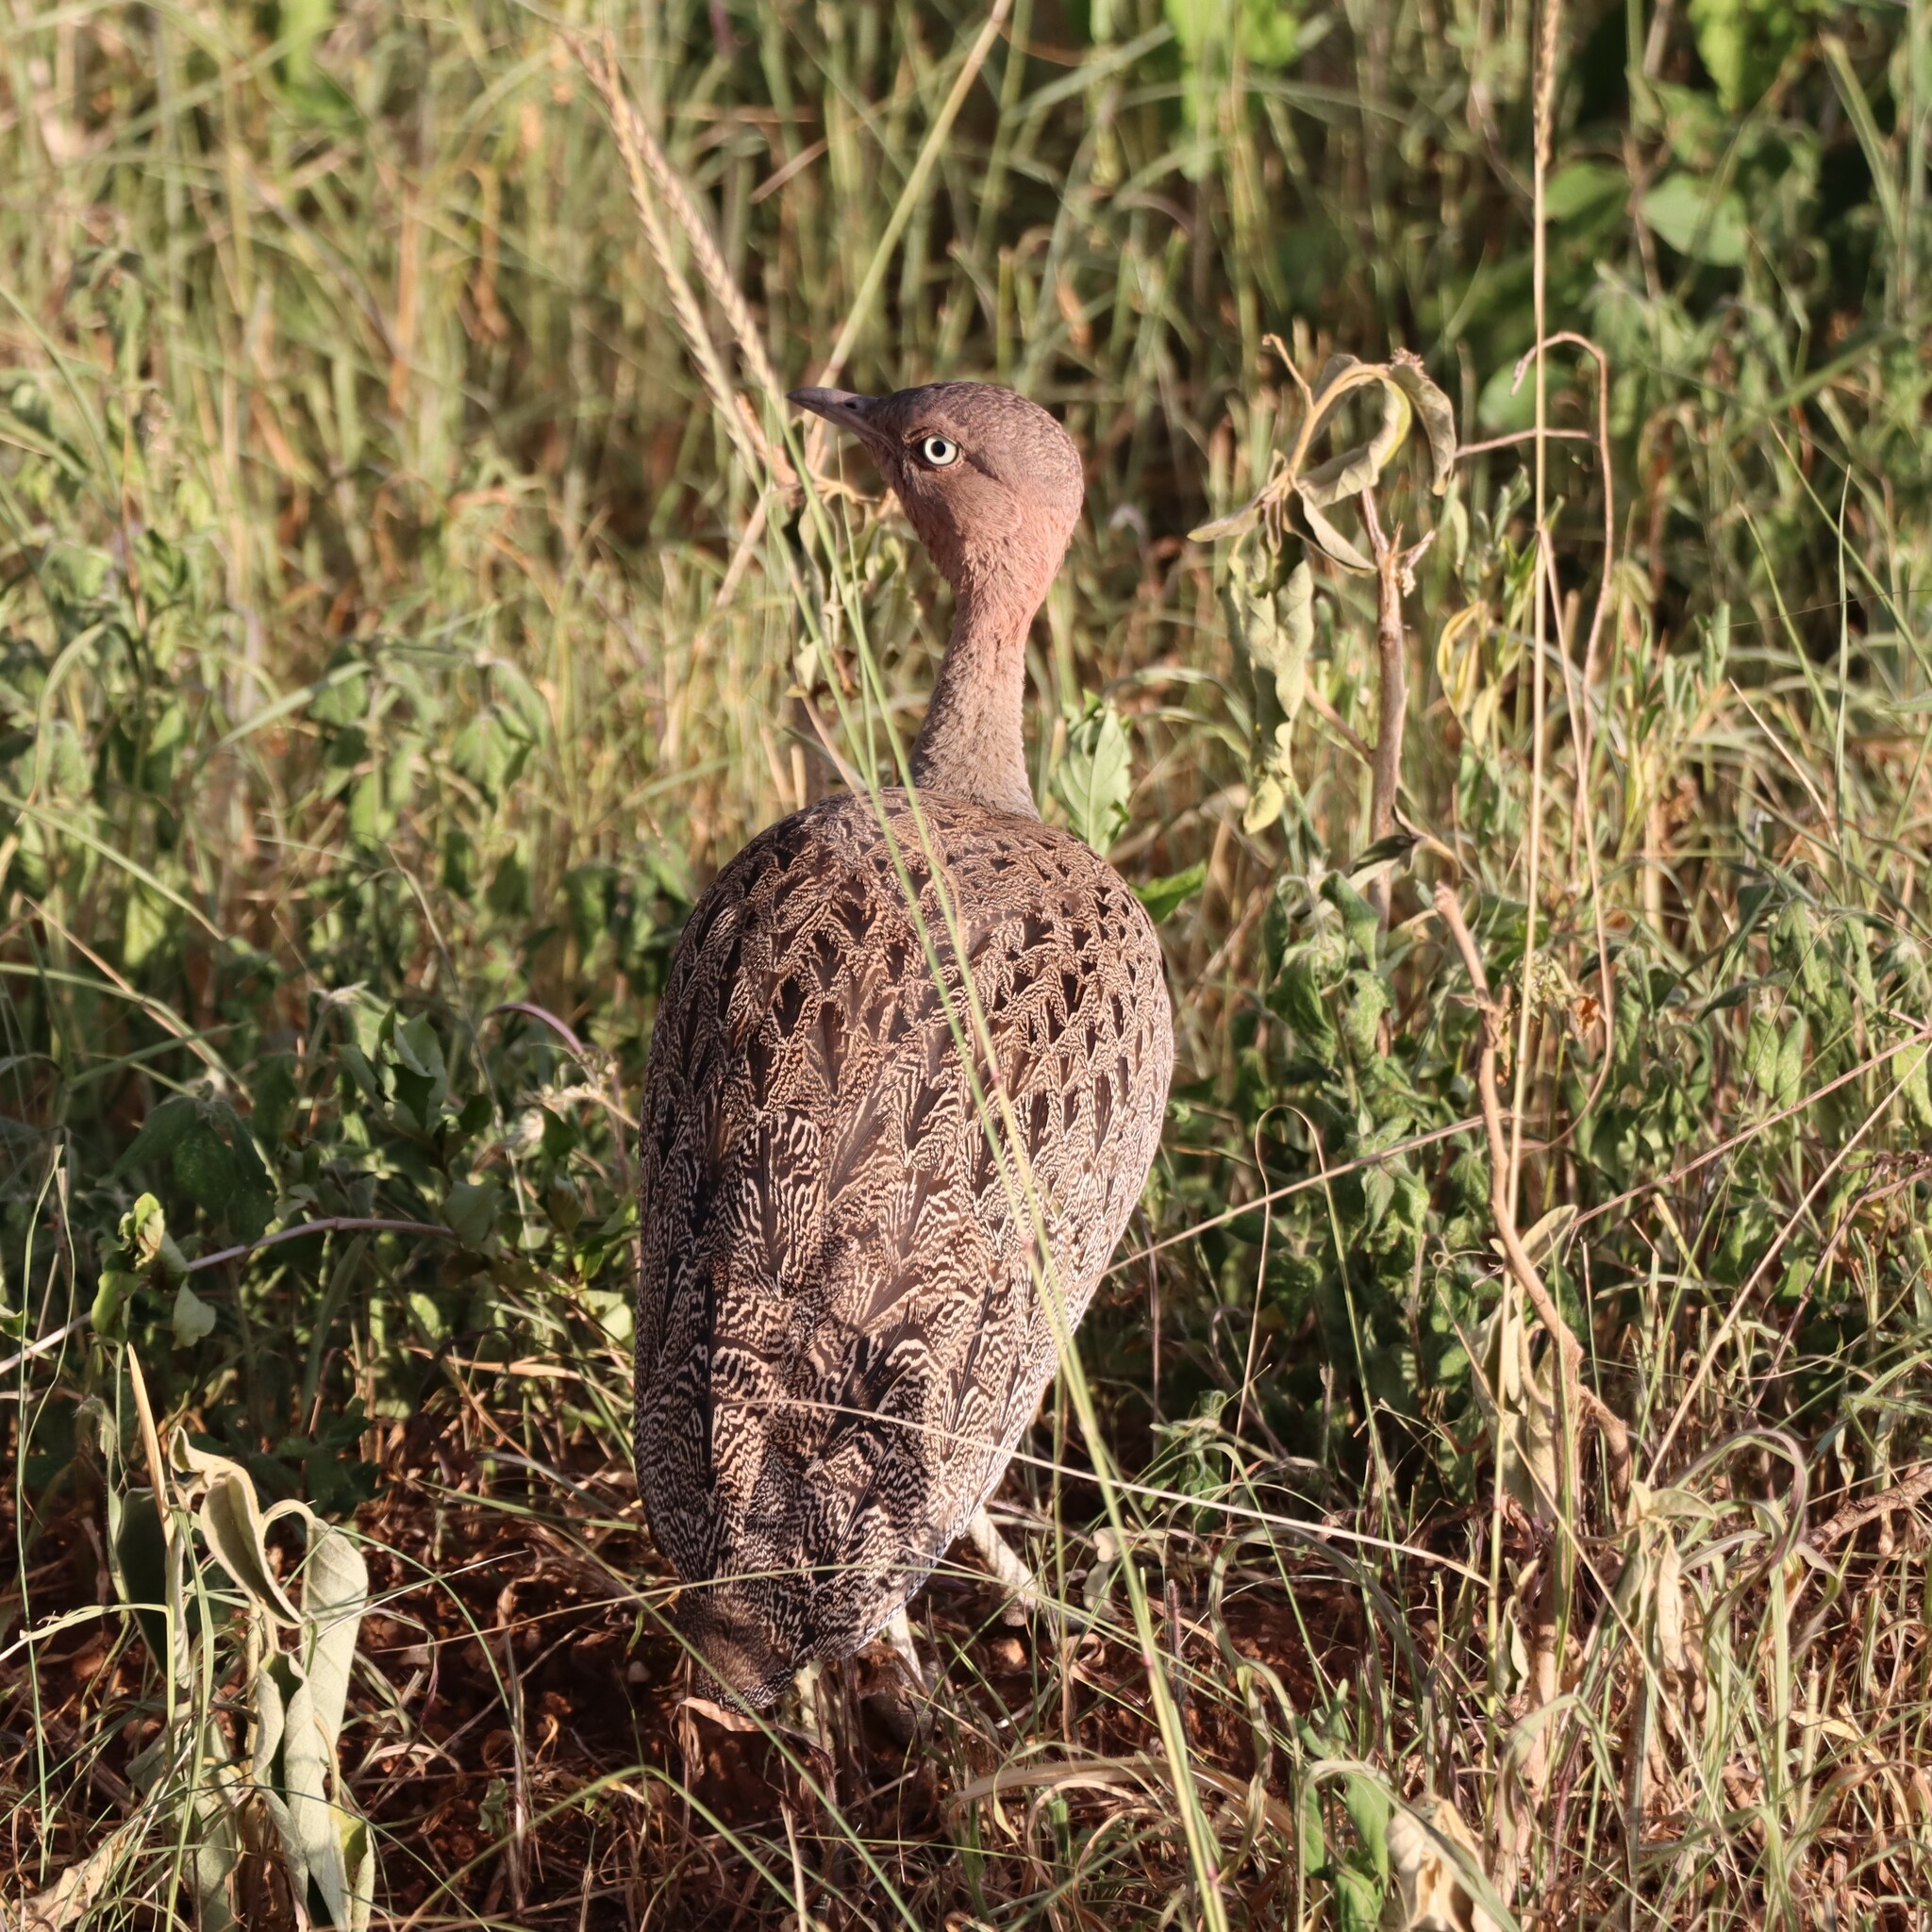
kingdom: Animalia
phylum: Chordata
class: Aves
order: Otidiformes
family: Otididae
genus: Lophotis
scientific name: Lophotis gindiana
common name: Buff-crested bustard
